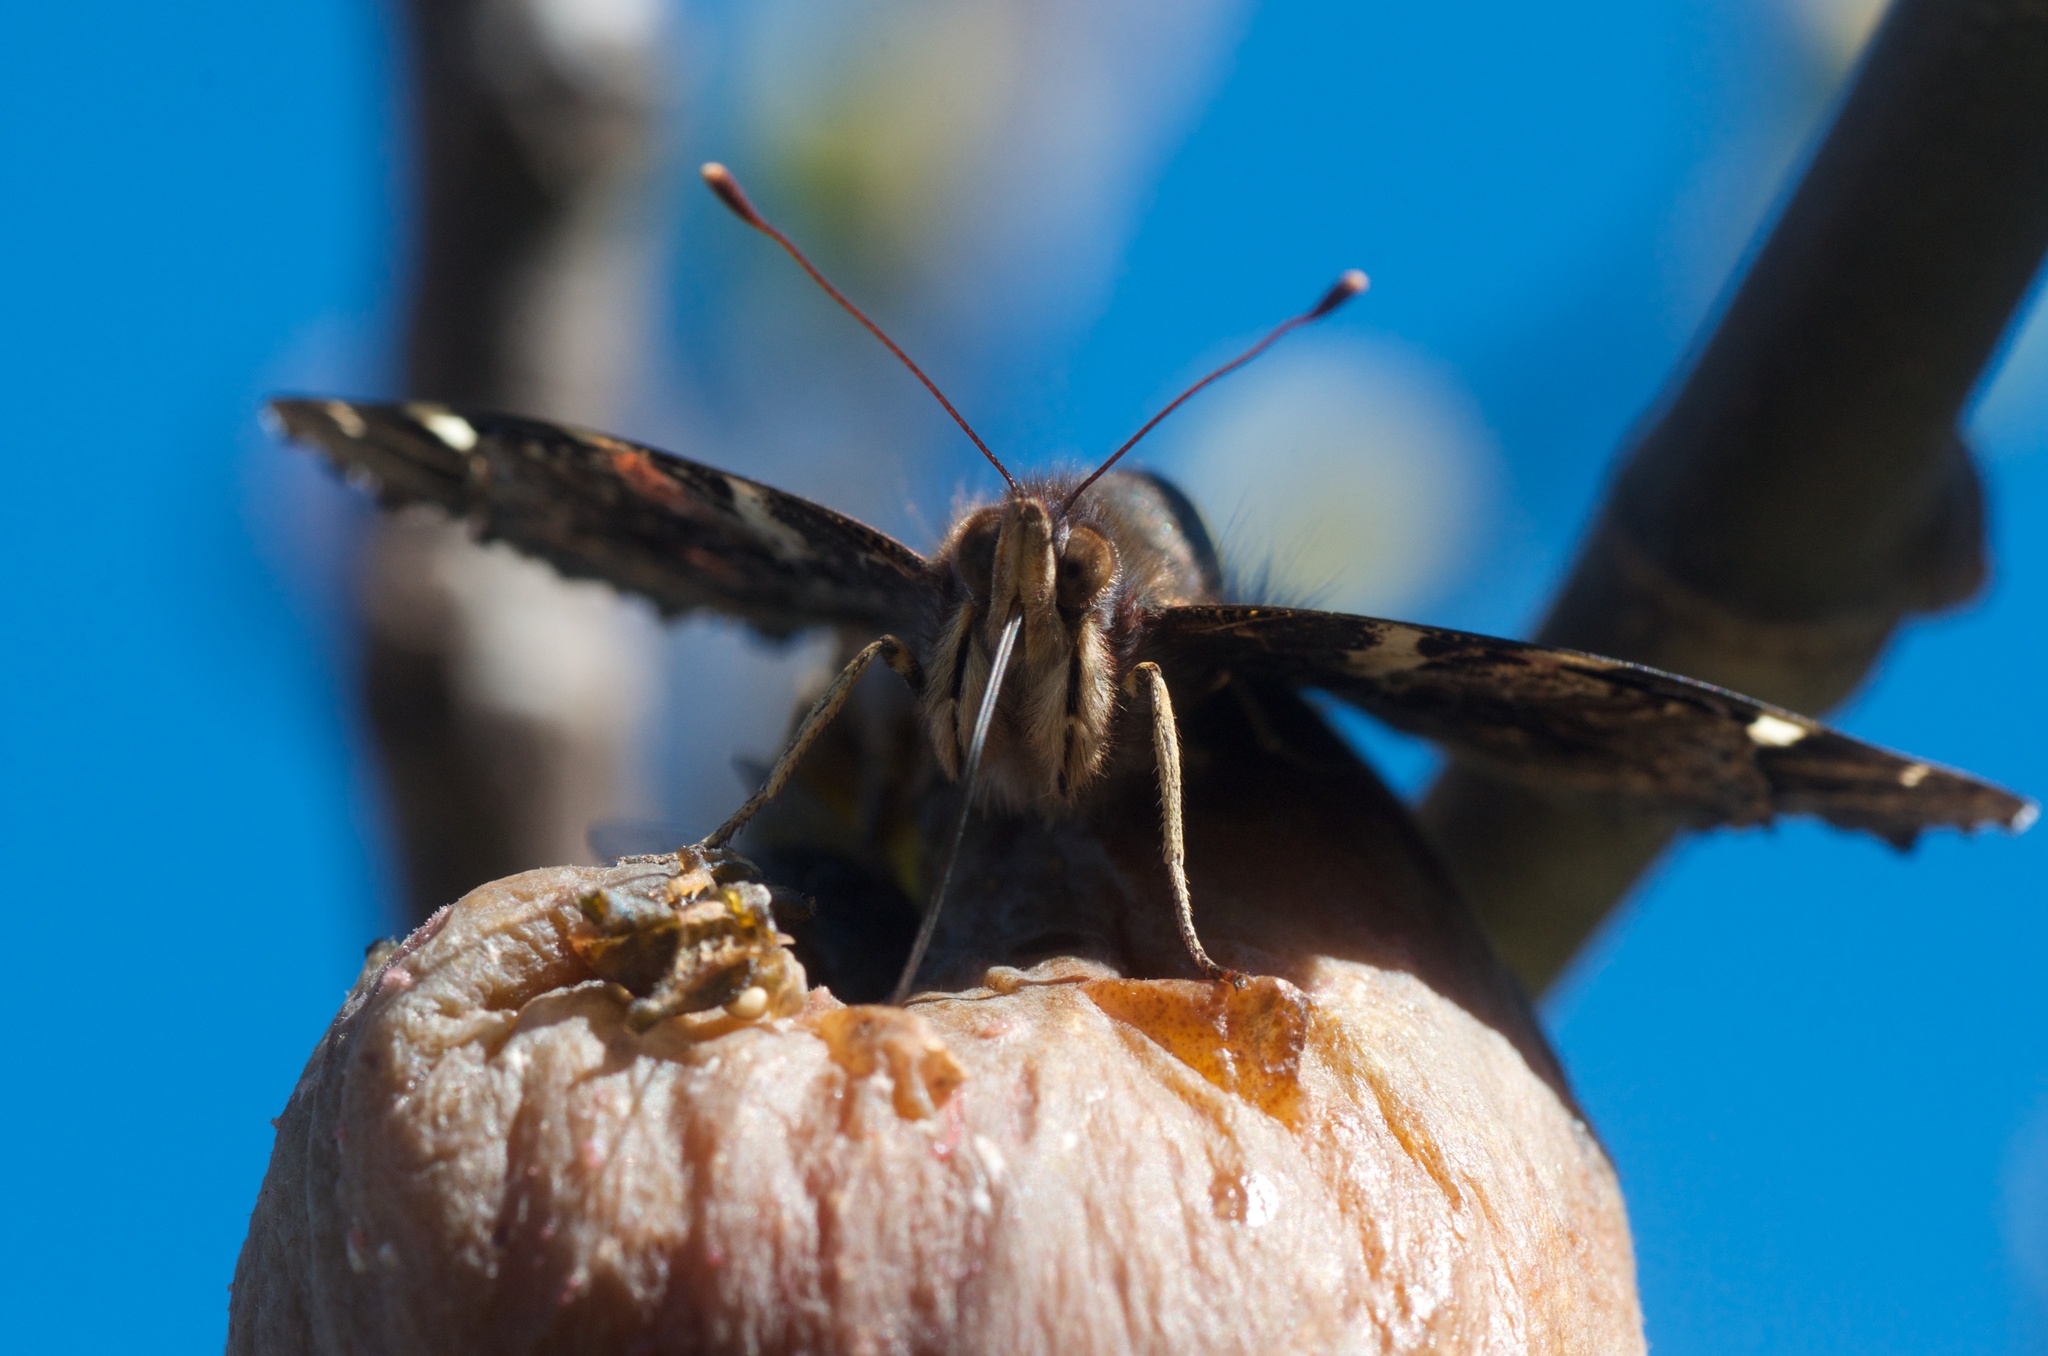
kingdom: Animalia
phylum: Arthropoda
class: Insecta
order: Lepidoptera
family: Nymphalidae
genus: Vanessa
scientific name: Vanessa gonerilla
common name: New zealand red admiral
